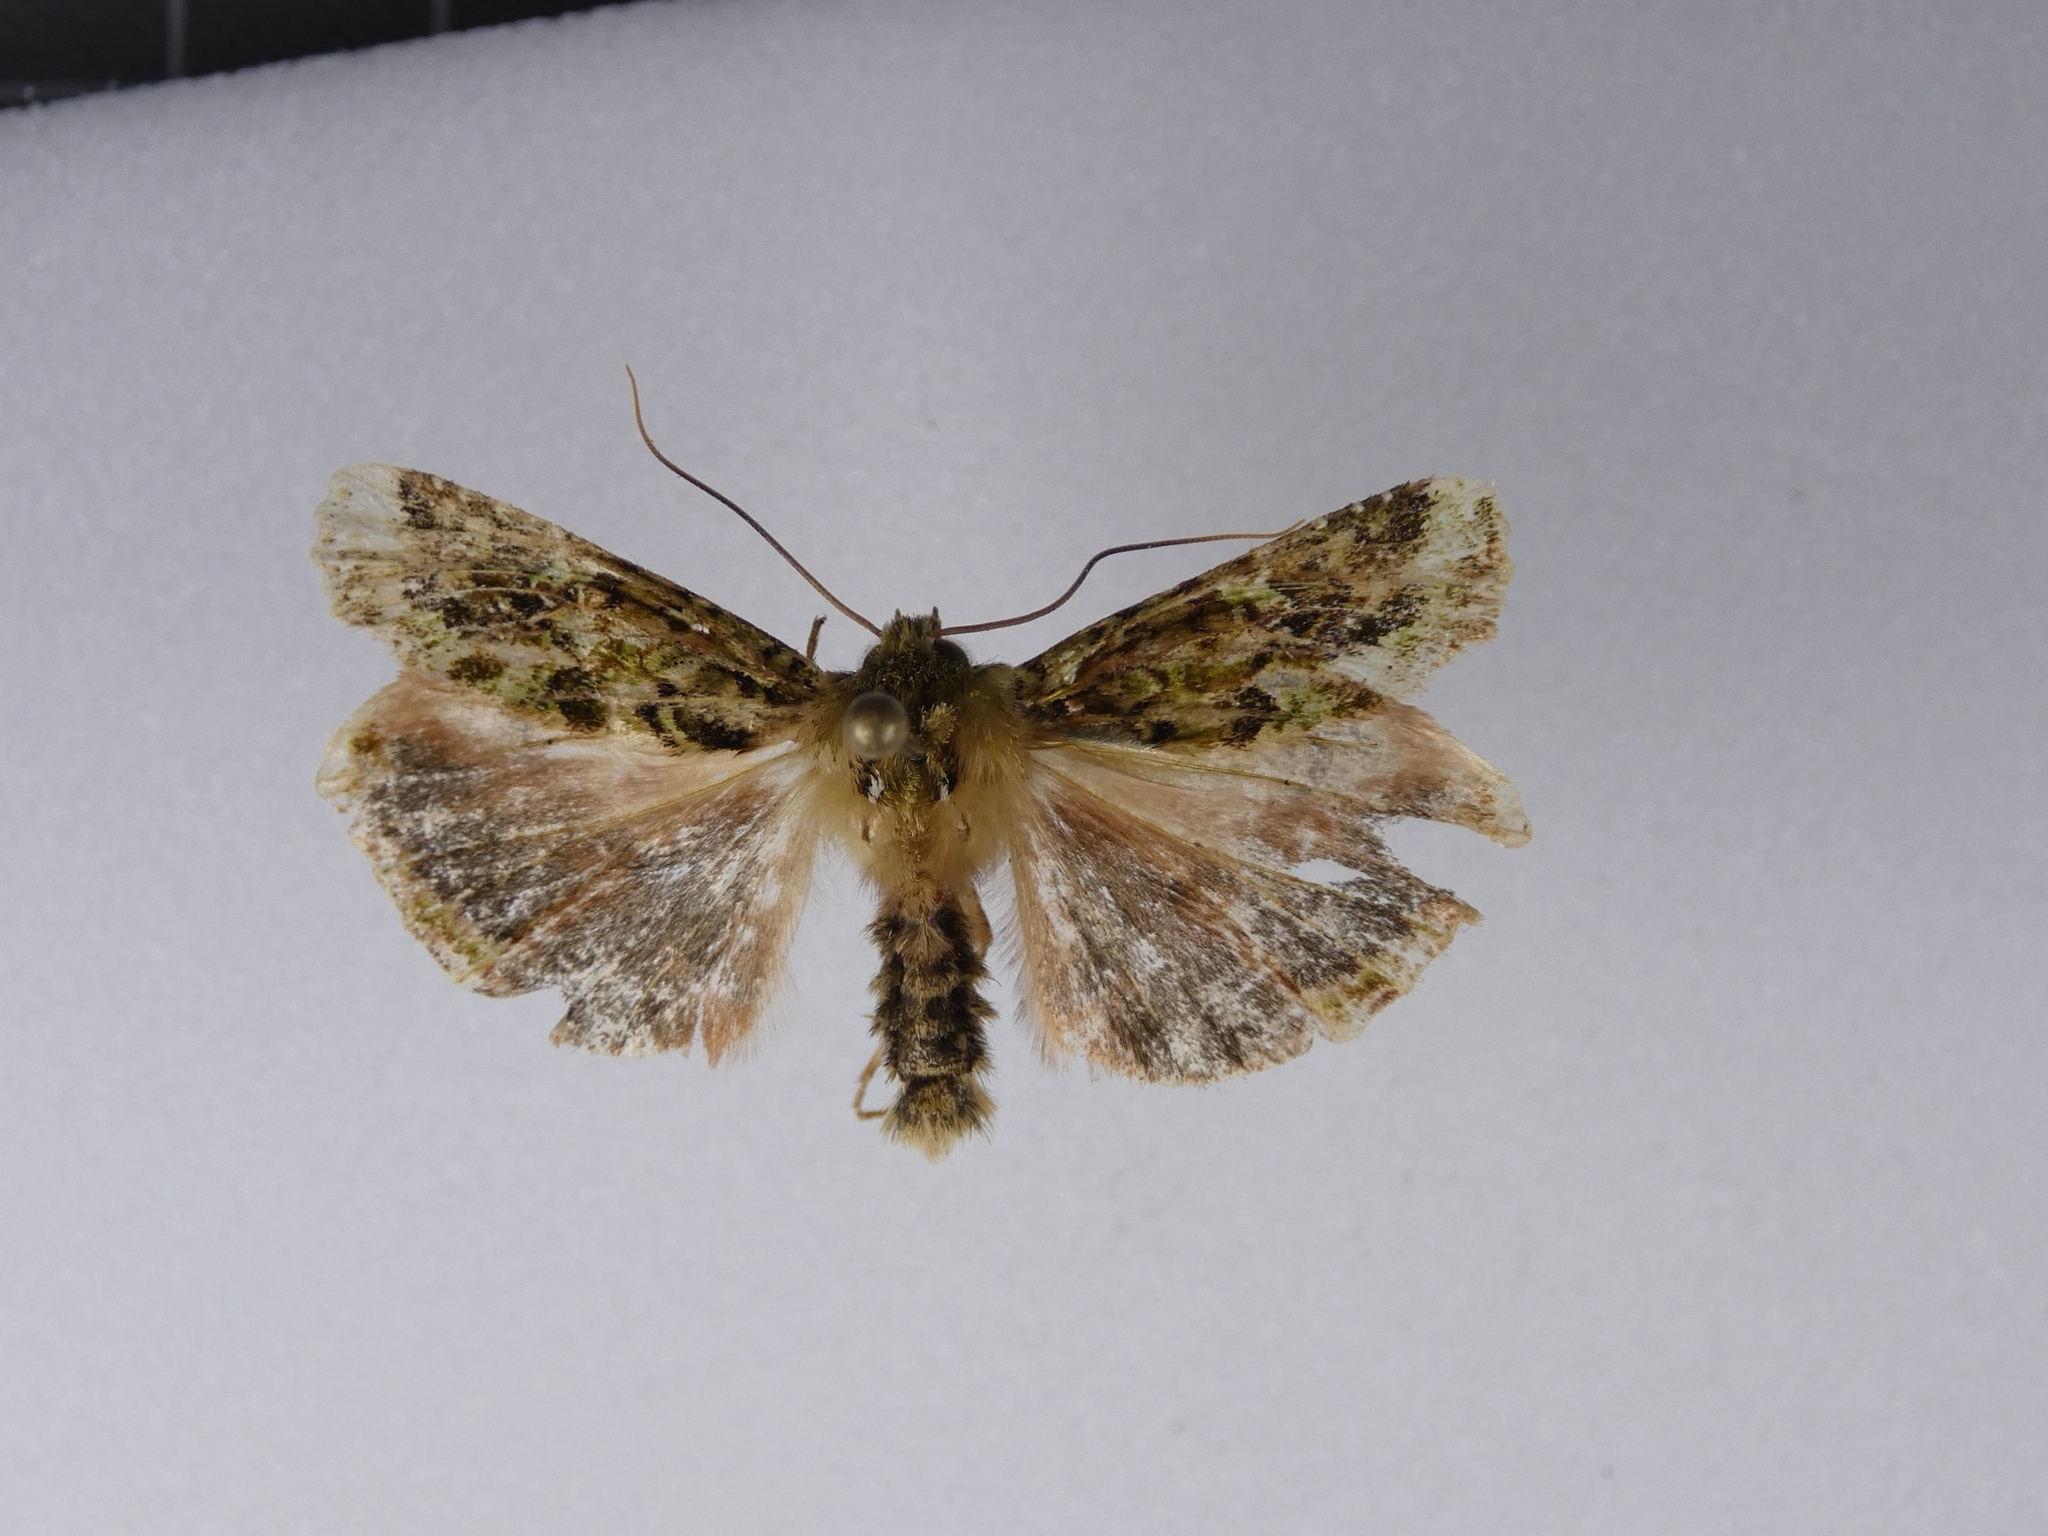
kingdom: Animalia
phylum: Arthropoda
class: Insecta
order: Lepidoptera
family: Noctuidae
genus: Feredayia
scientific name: Feredayia grammosa
